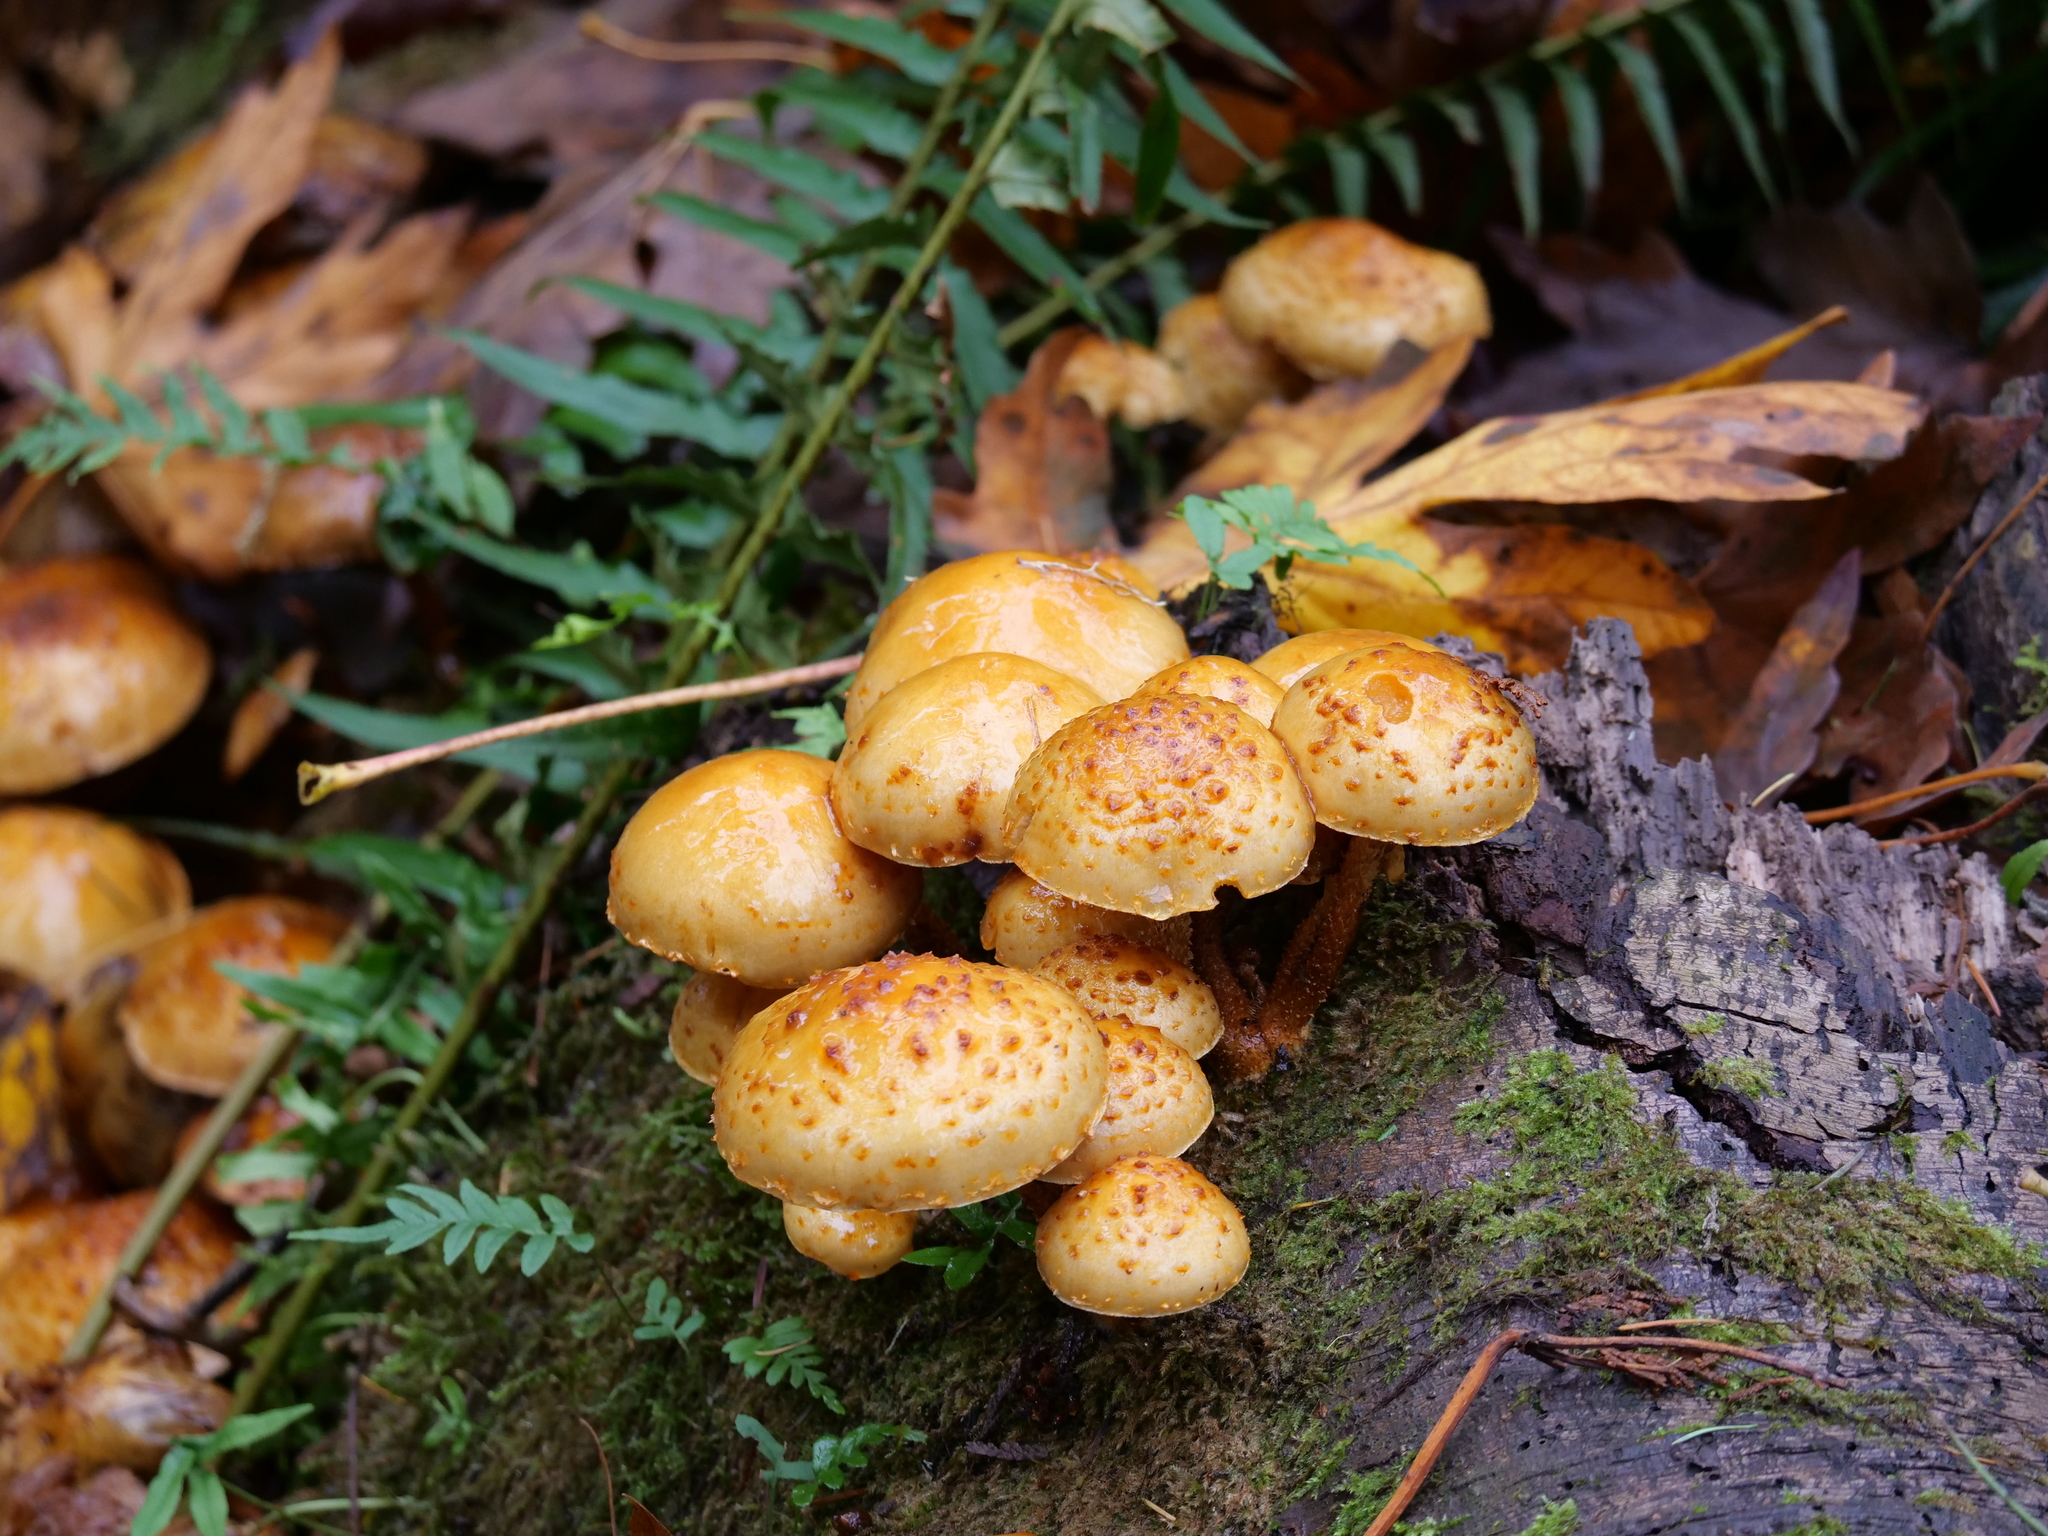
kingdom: Fungi
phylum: Basidiomycota
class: Agaricomycetes
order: Agaricales
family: Strophariaceae
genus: Pholiota
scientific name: Pholiota aurivella
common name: Golden scalycap
